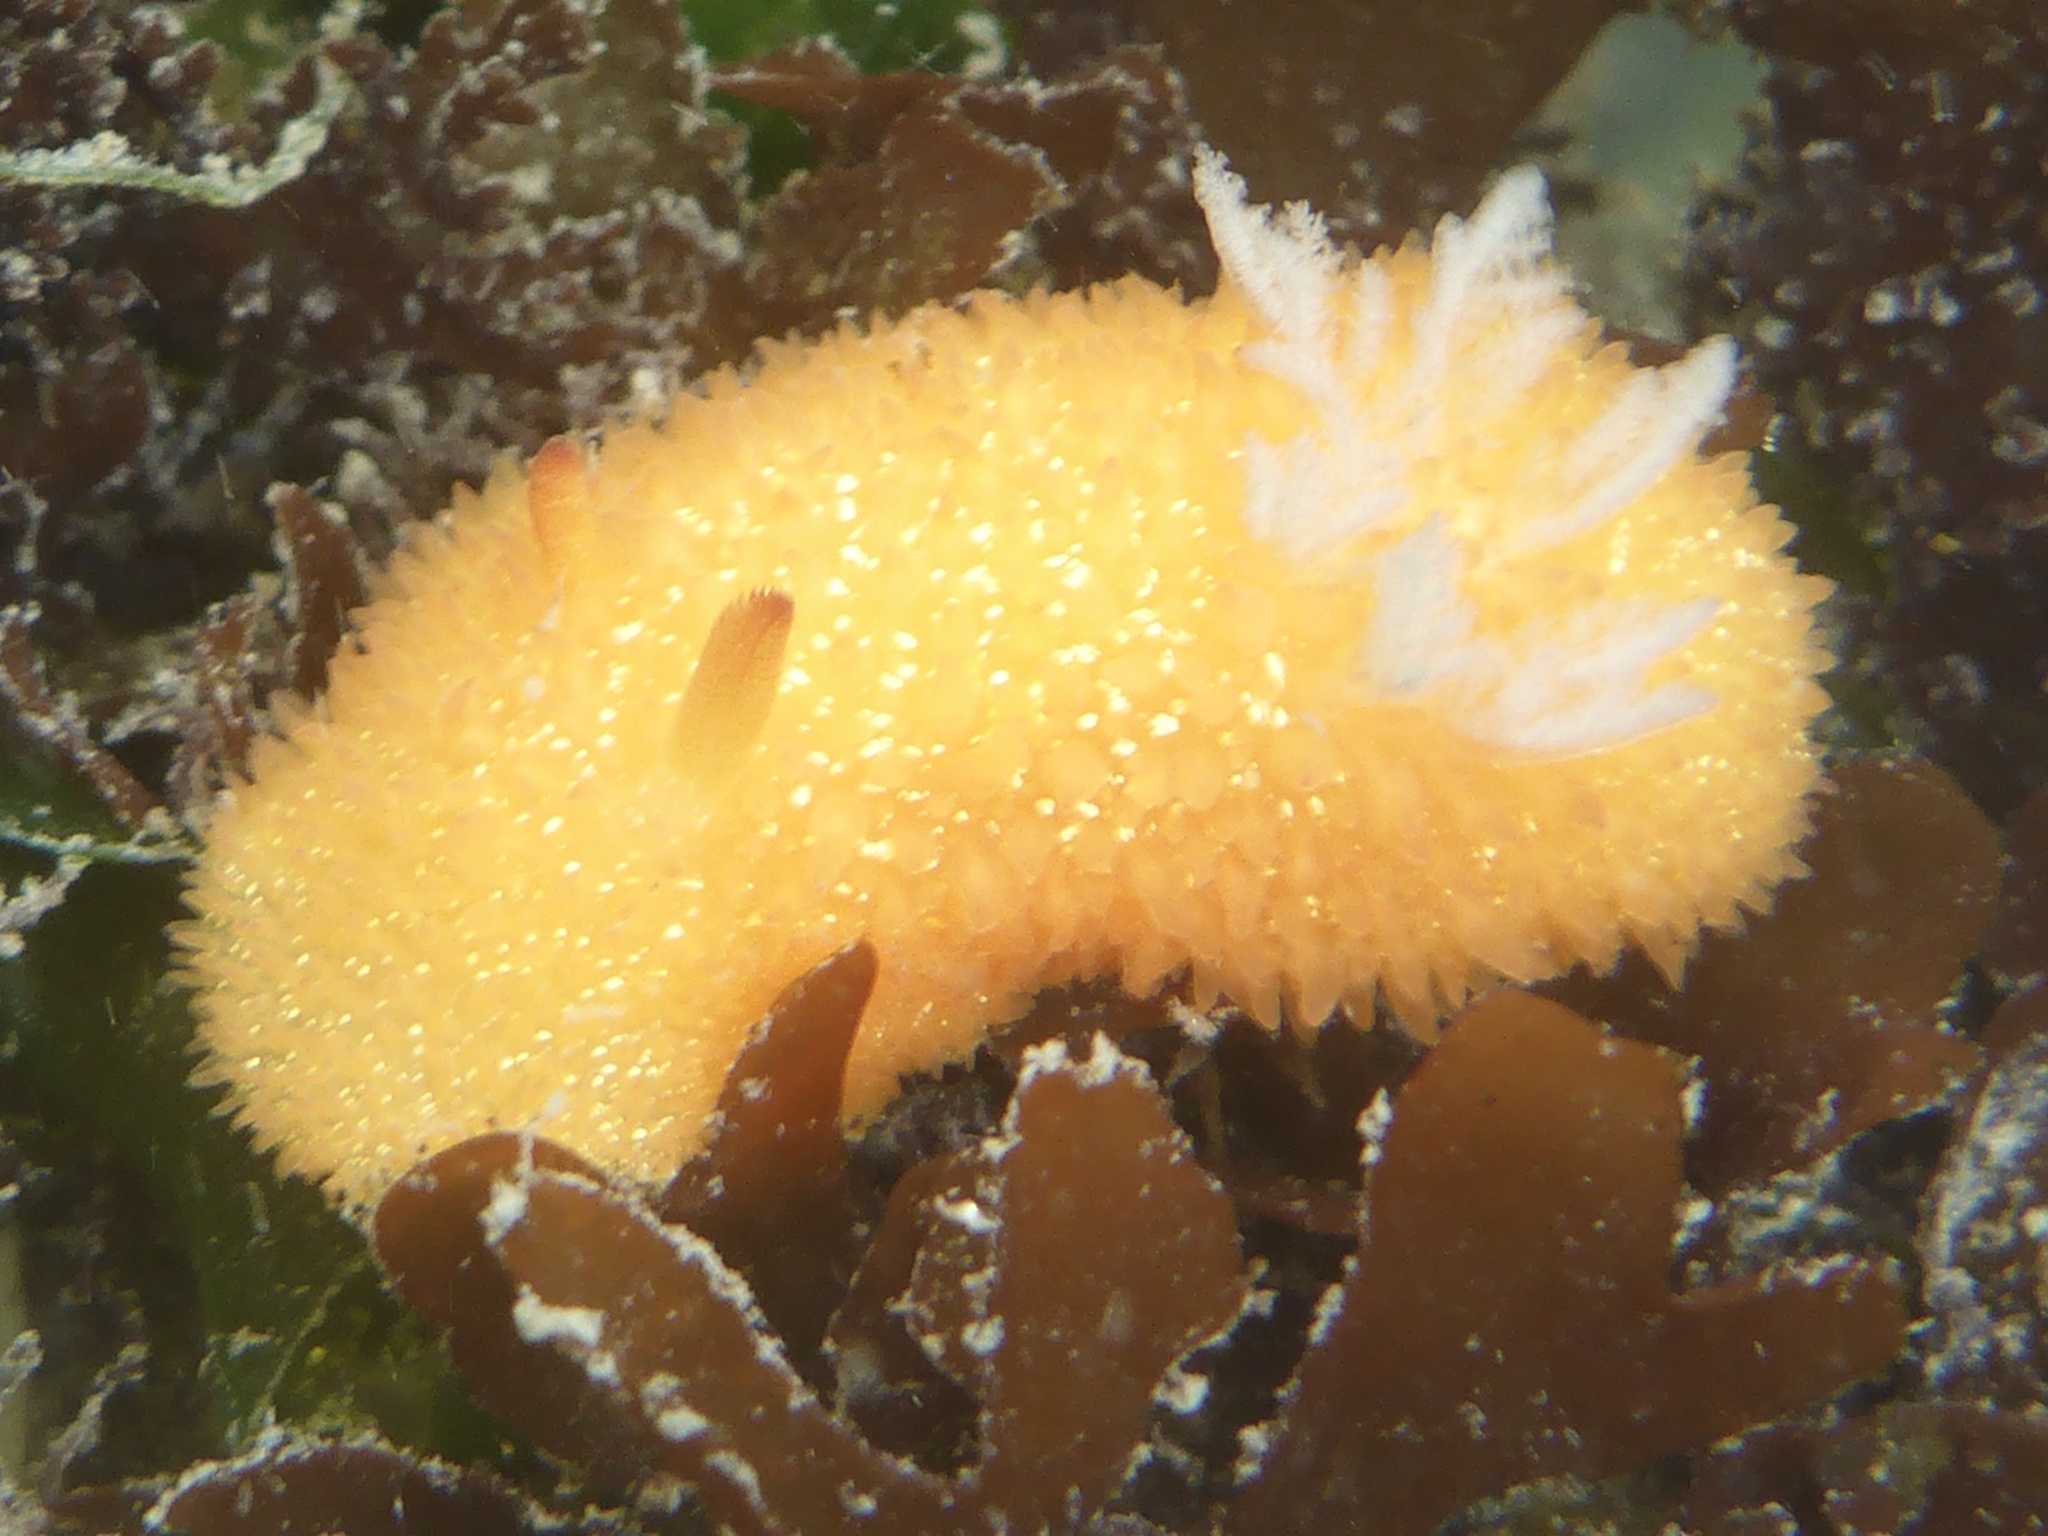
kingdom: Animalia
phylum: Mollusca
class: Gastropoda
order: Nudibranchia
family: Onchidorididae
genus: Acanthodoris
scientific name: Acanthodoris lutea
